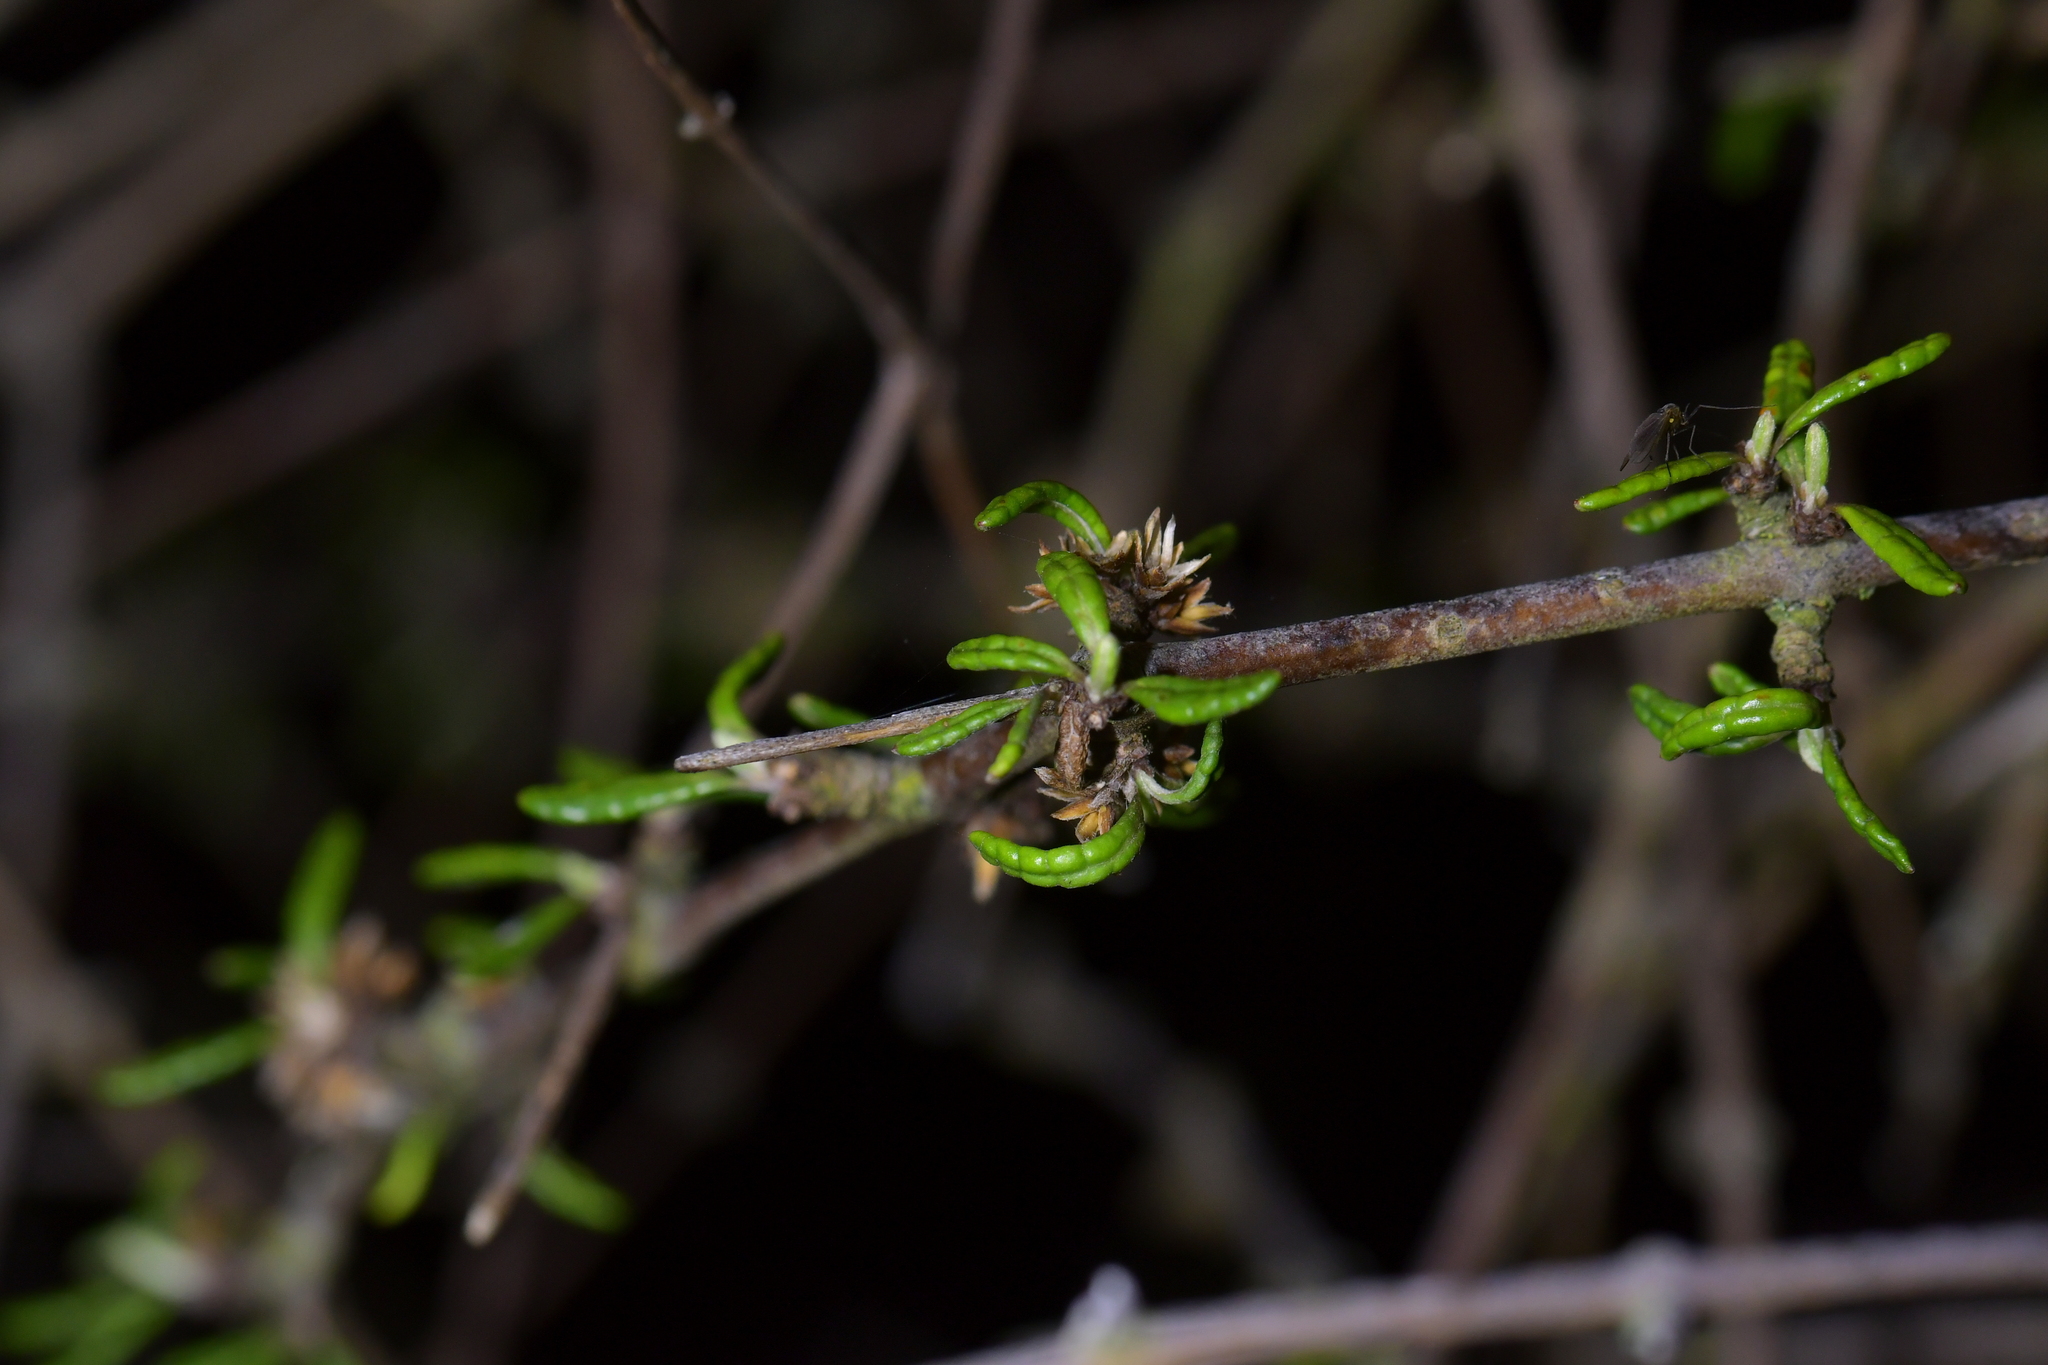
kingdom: Plantae
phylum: Tracheophyta
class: Magnoliopsida
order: Asterales
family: Asteraceae
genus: Olearia
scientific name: Olearia bullata
